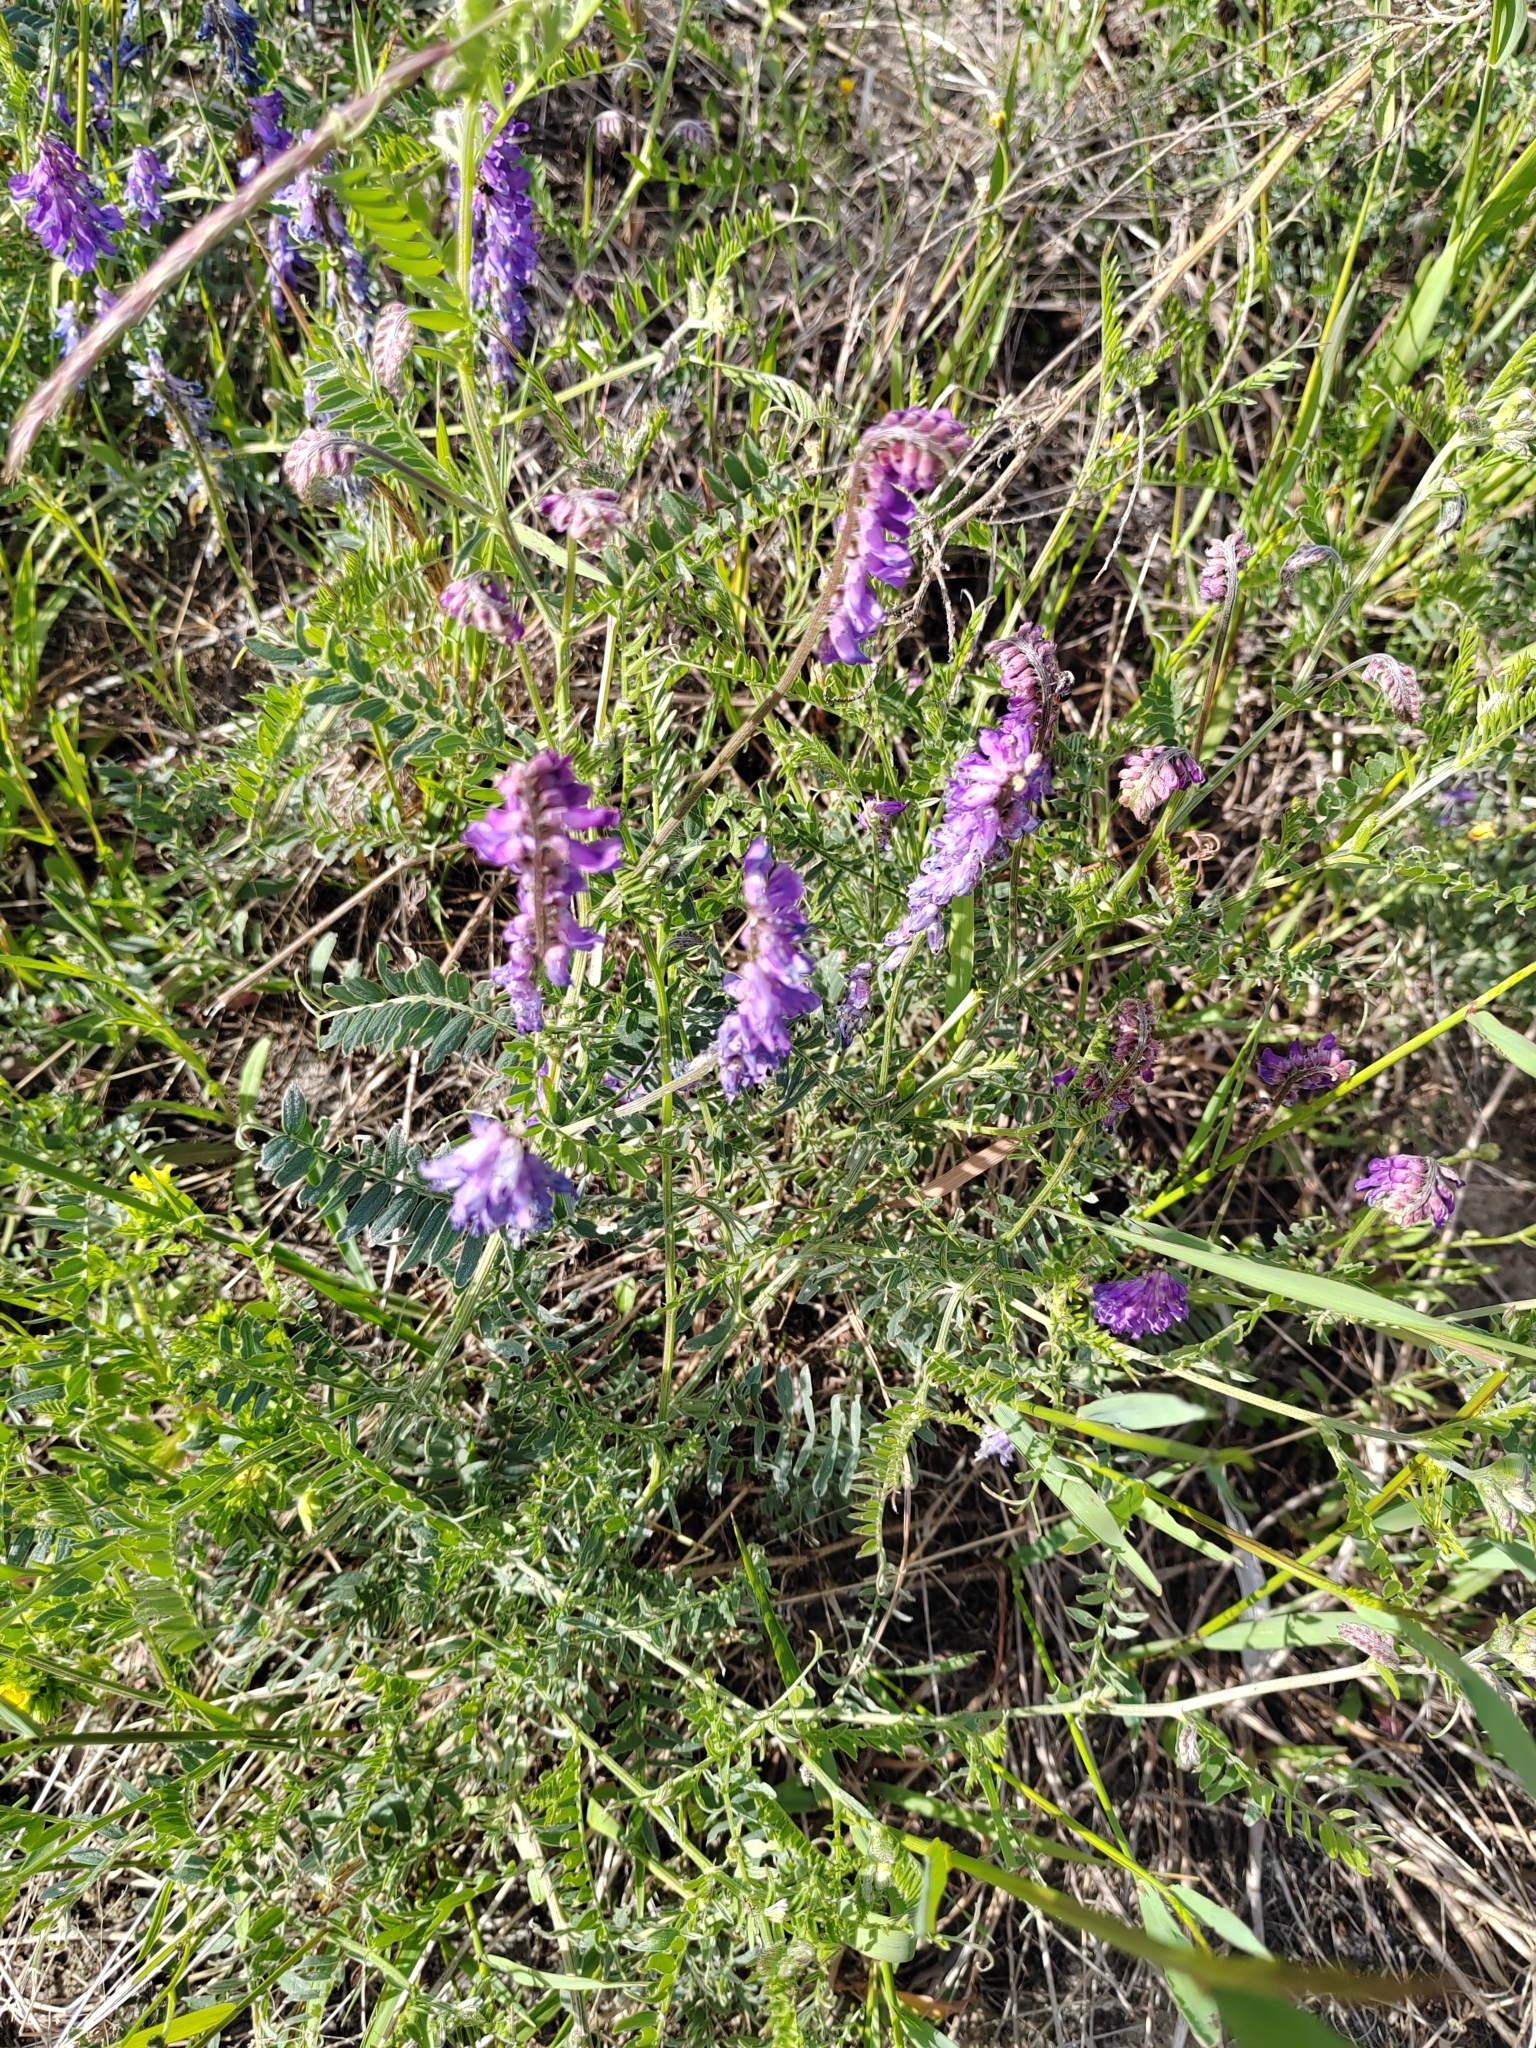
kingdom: Plantae
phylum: Tracheophyta
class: Magnoliopsida
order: Fabales
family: Fabaceae
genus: Vicia
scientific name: Vicia cracca
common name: Bird vetch
